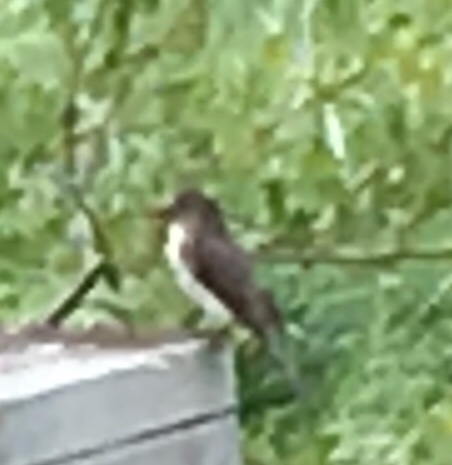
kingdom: Animalia
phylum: Chordata
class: Aves
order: Passeriformes
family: Tyrannidae
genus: Sayornis
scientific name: Sayornis phoebe
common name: Eastern phoebe
